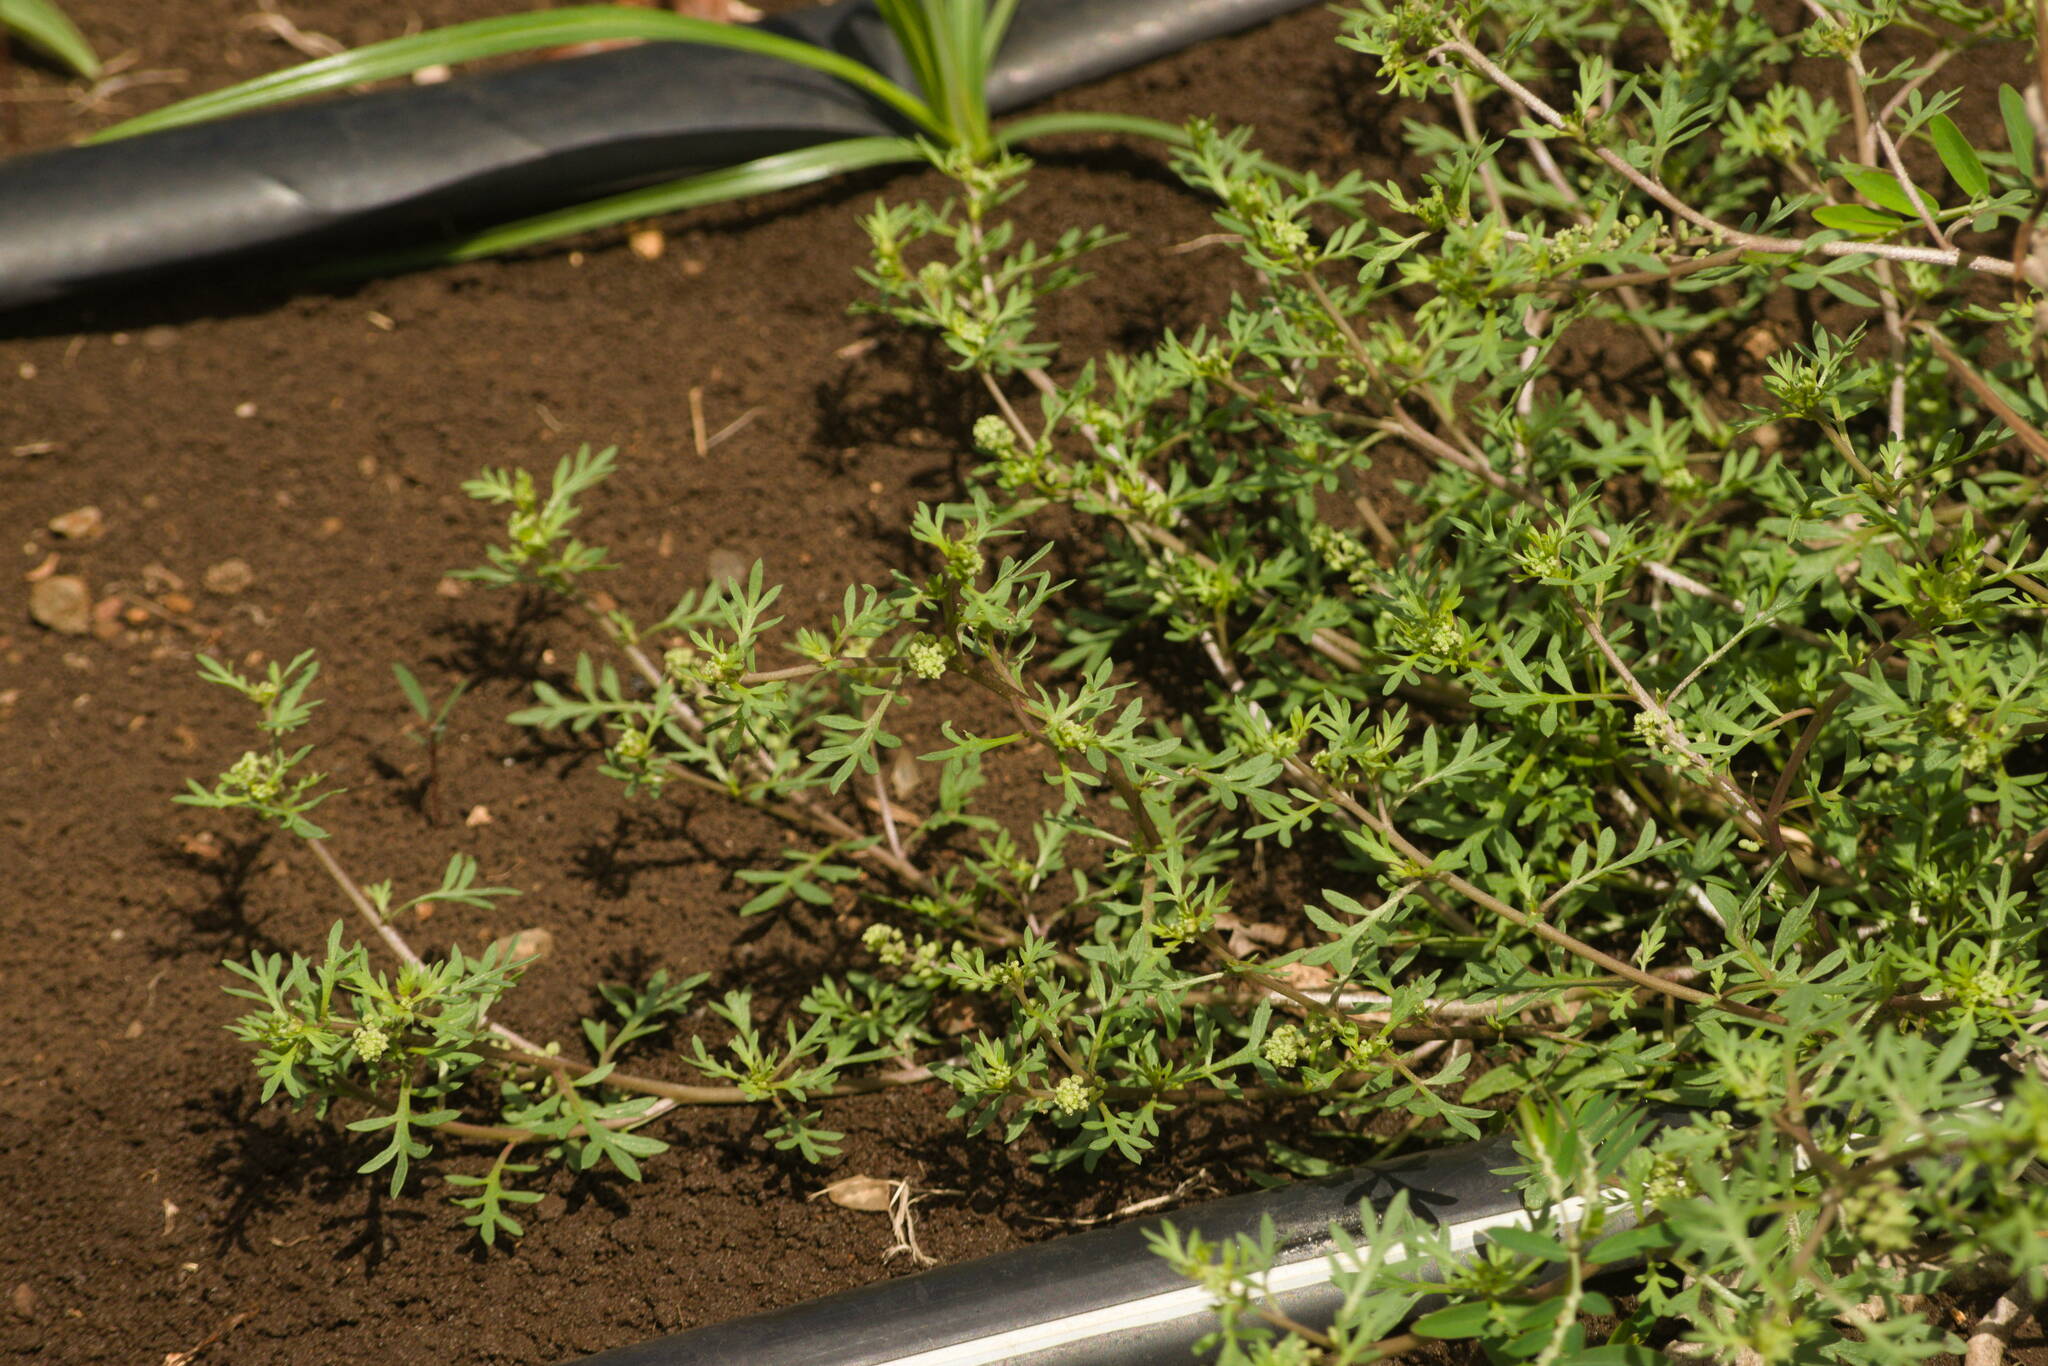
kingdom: Plantae
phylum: Tracheophyta
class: Magnoliopsida
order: Brassicales
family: Brassicaceae
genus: Lepidium
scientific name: Lepidium didymum
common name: Lesser swinecress
